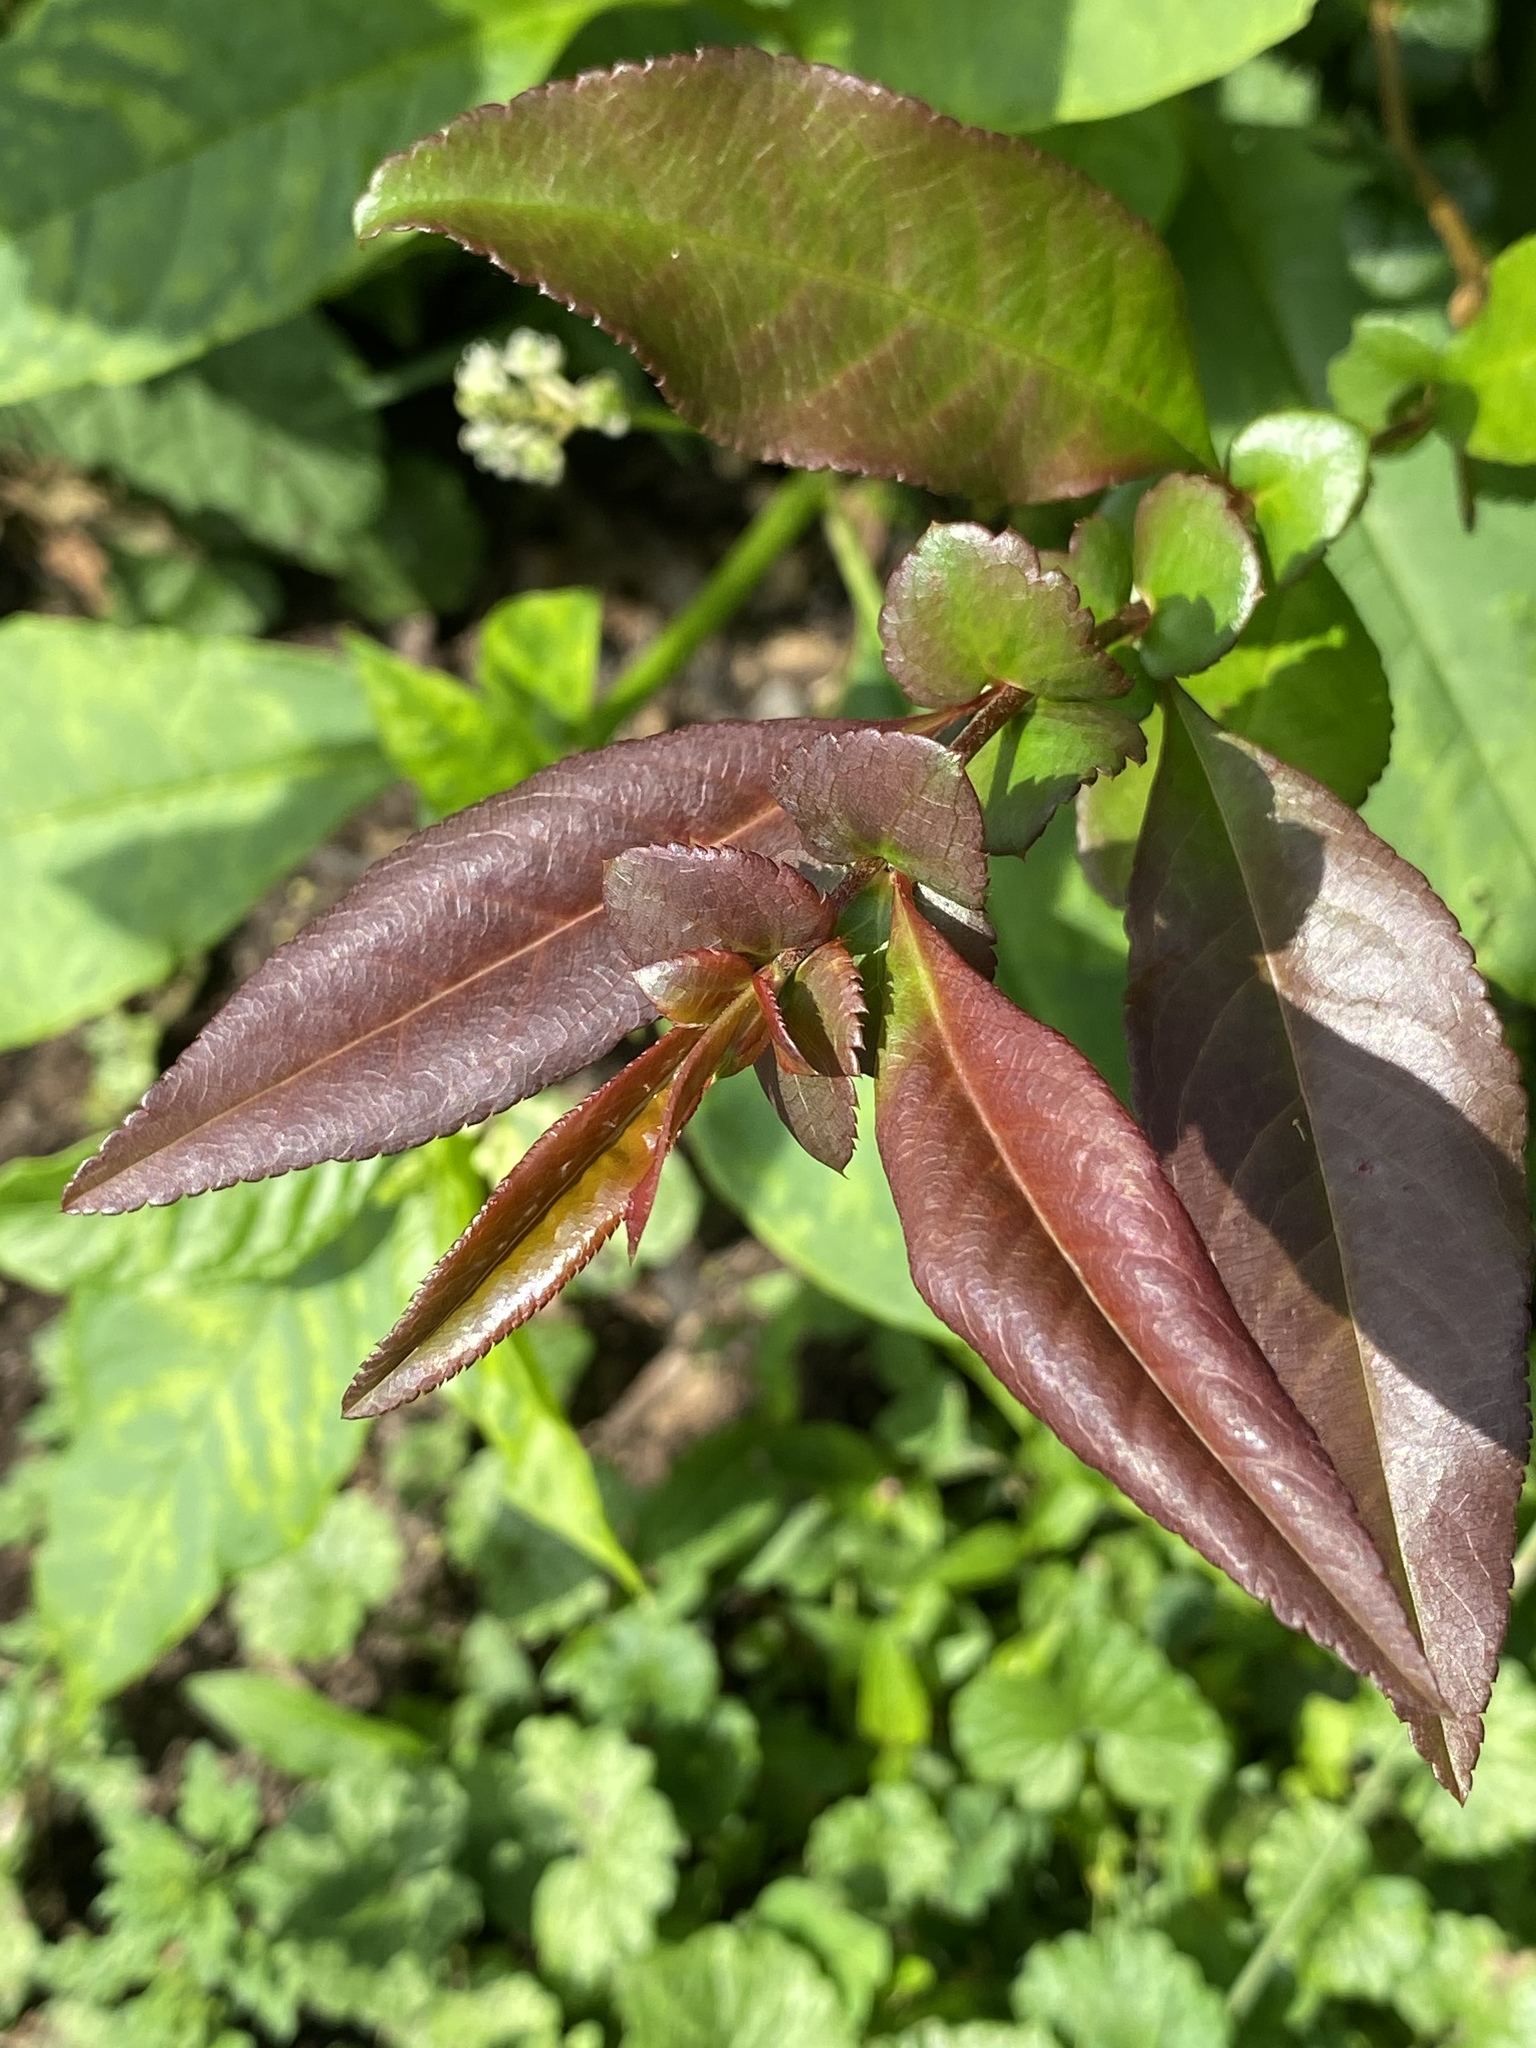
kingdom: Plantae
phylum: Tracheophyta
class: Magnoliopsida
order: Malpighiales
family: Salicaceae
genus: Salix
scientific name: Salix eriocephala
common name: Heart-leaved willow
